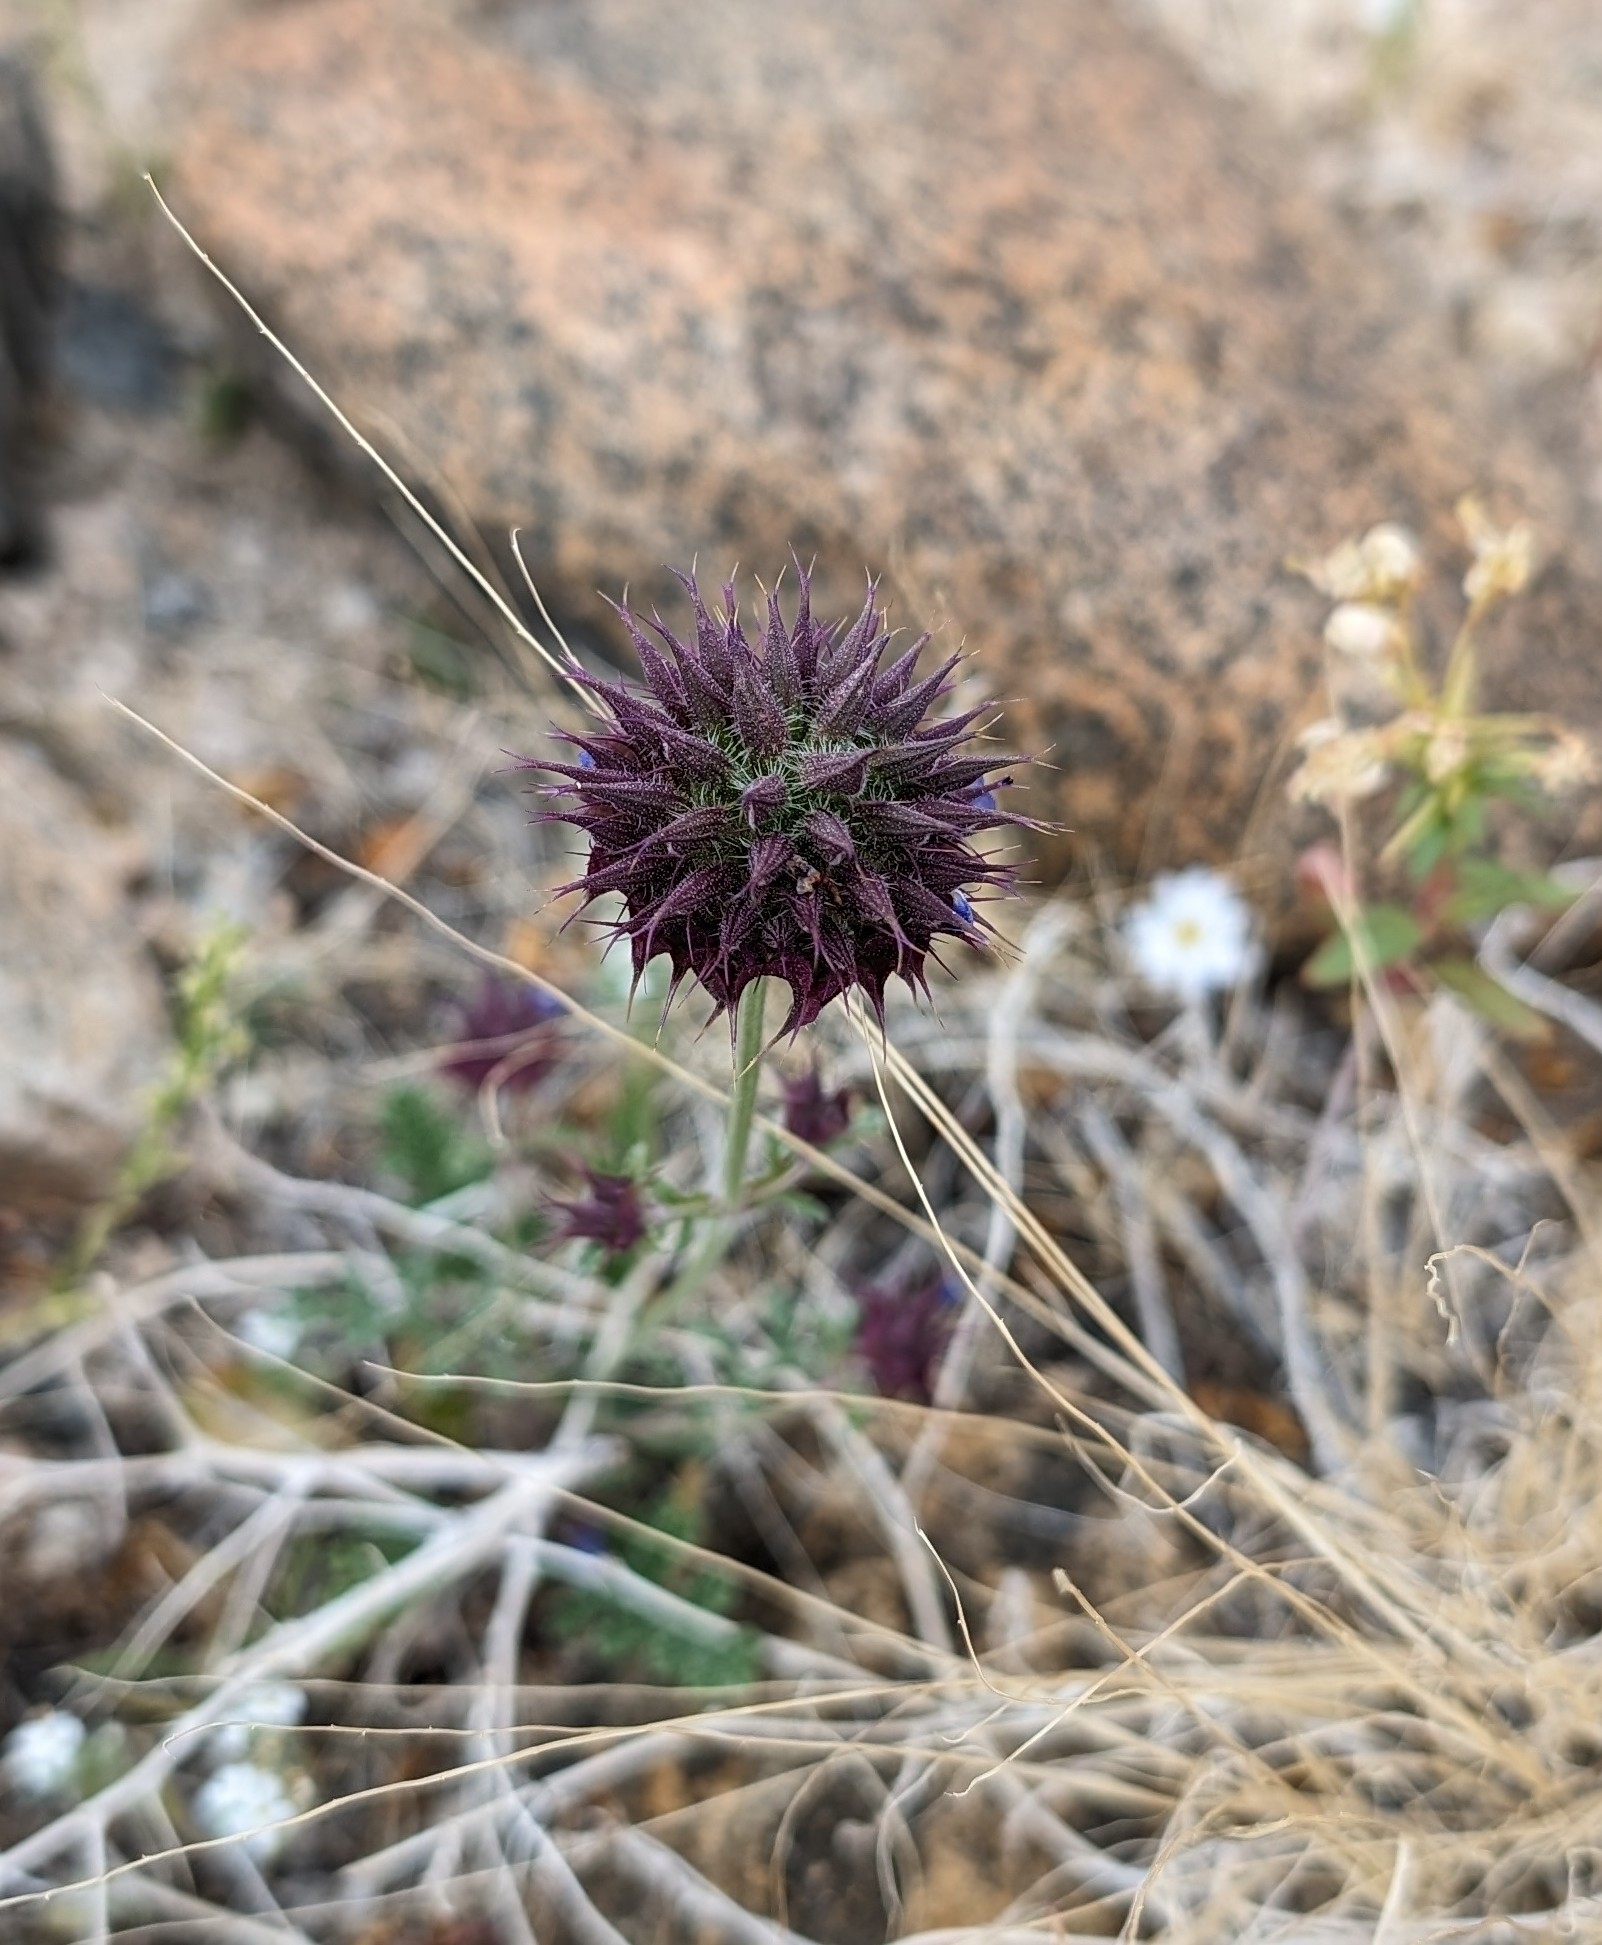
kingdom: Plantae
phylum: Tracheophyta
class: Magnoliopsida
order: Lamiales
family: Lamiaceae
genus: Salvia
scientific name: Salvia columbariae
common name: Chia
